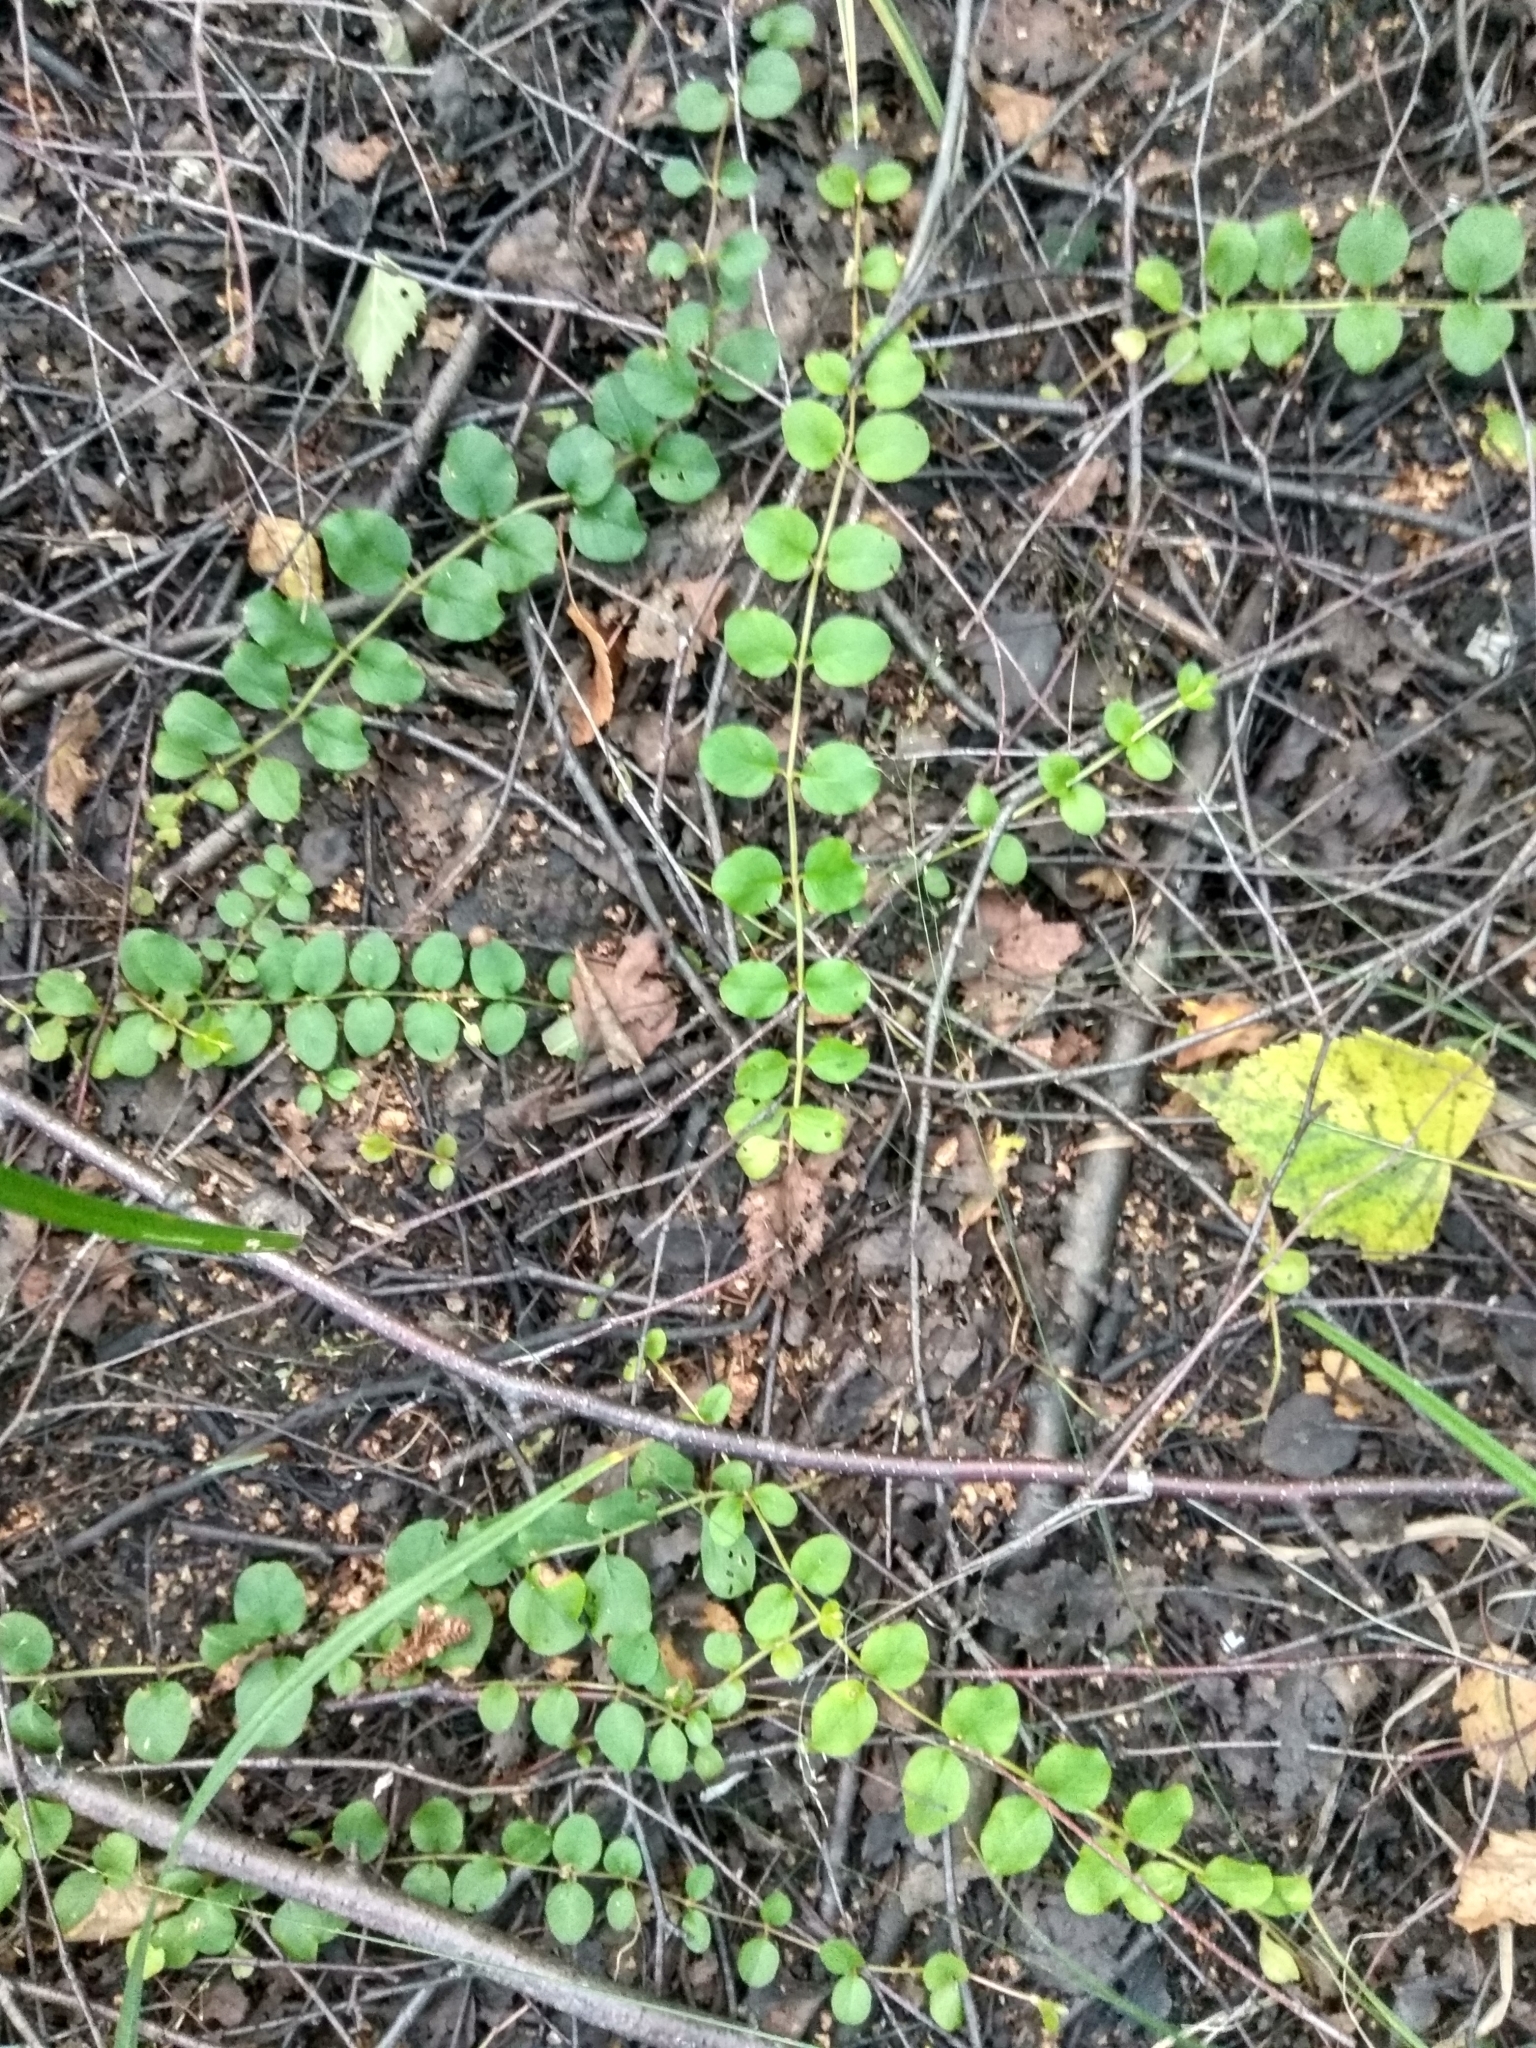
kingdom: Plantae
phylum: Tracheophyta
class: Magnoliopsida
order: Ericales
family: Primulaceae
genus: Lysimachia
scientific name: Lysimachia nummularia
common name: Moneywort
